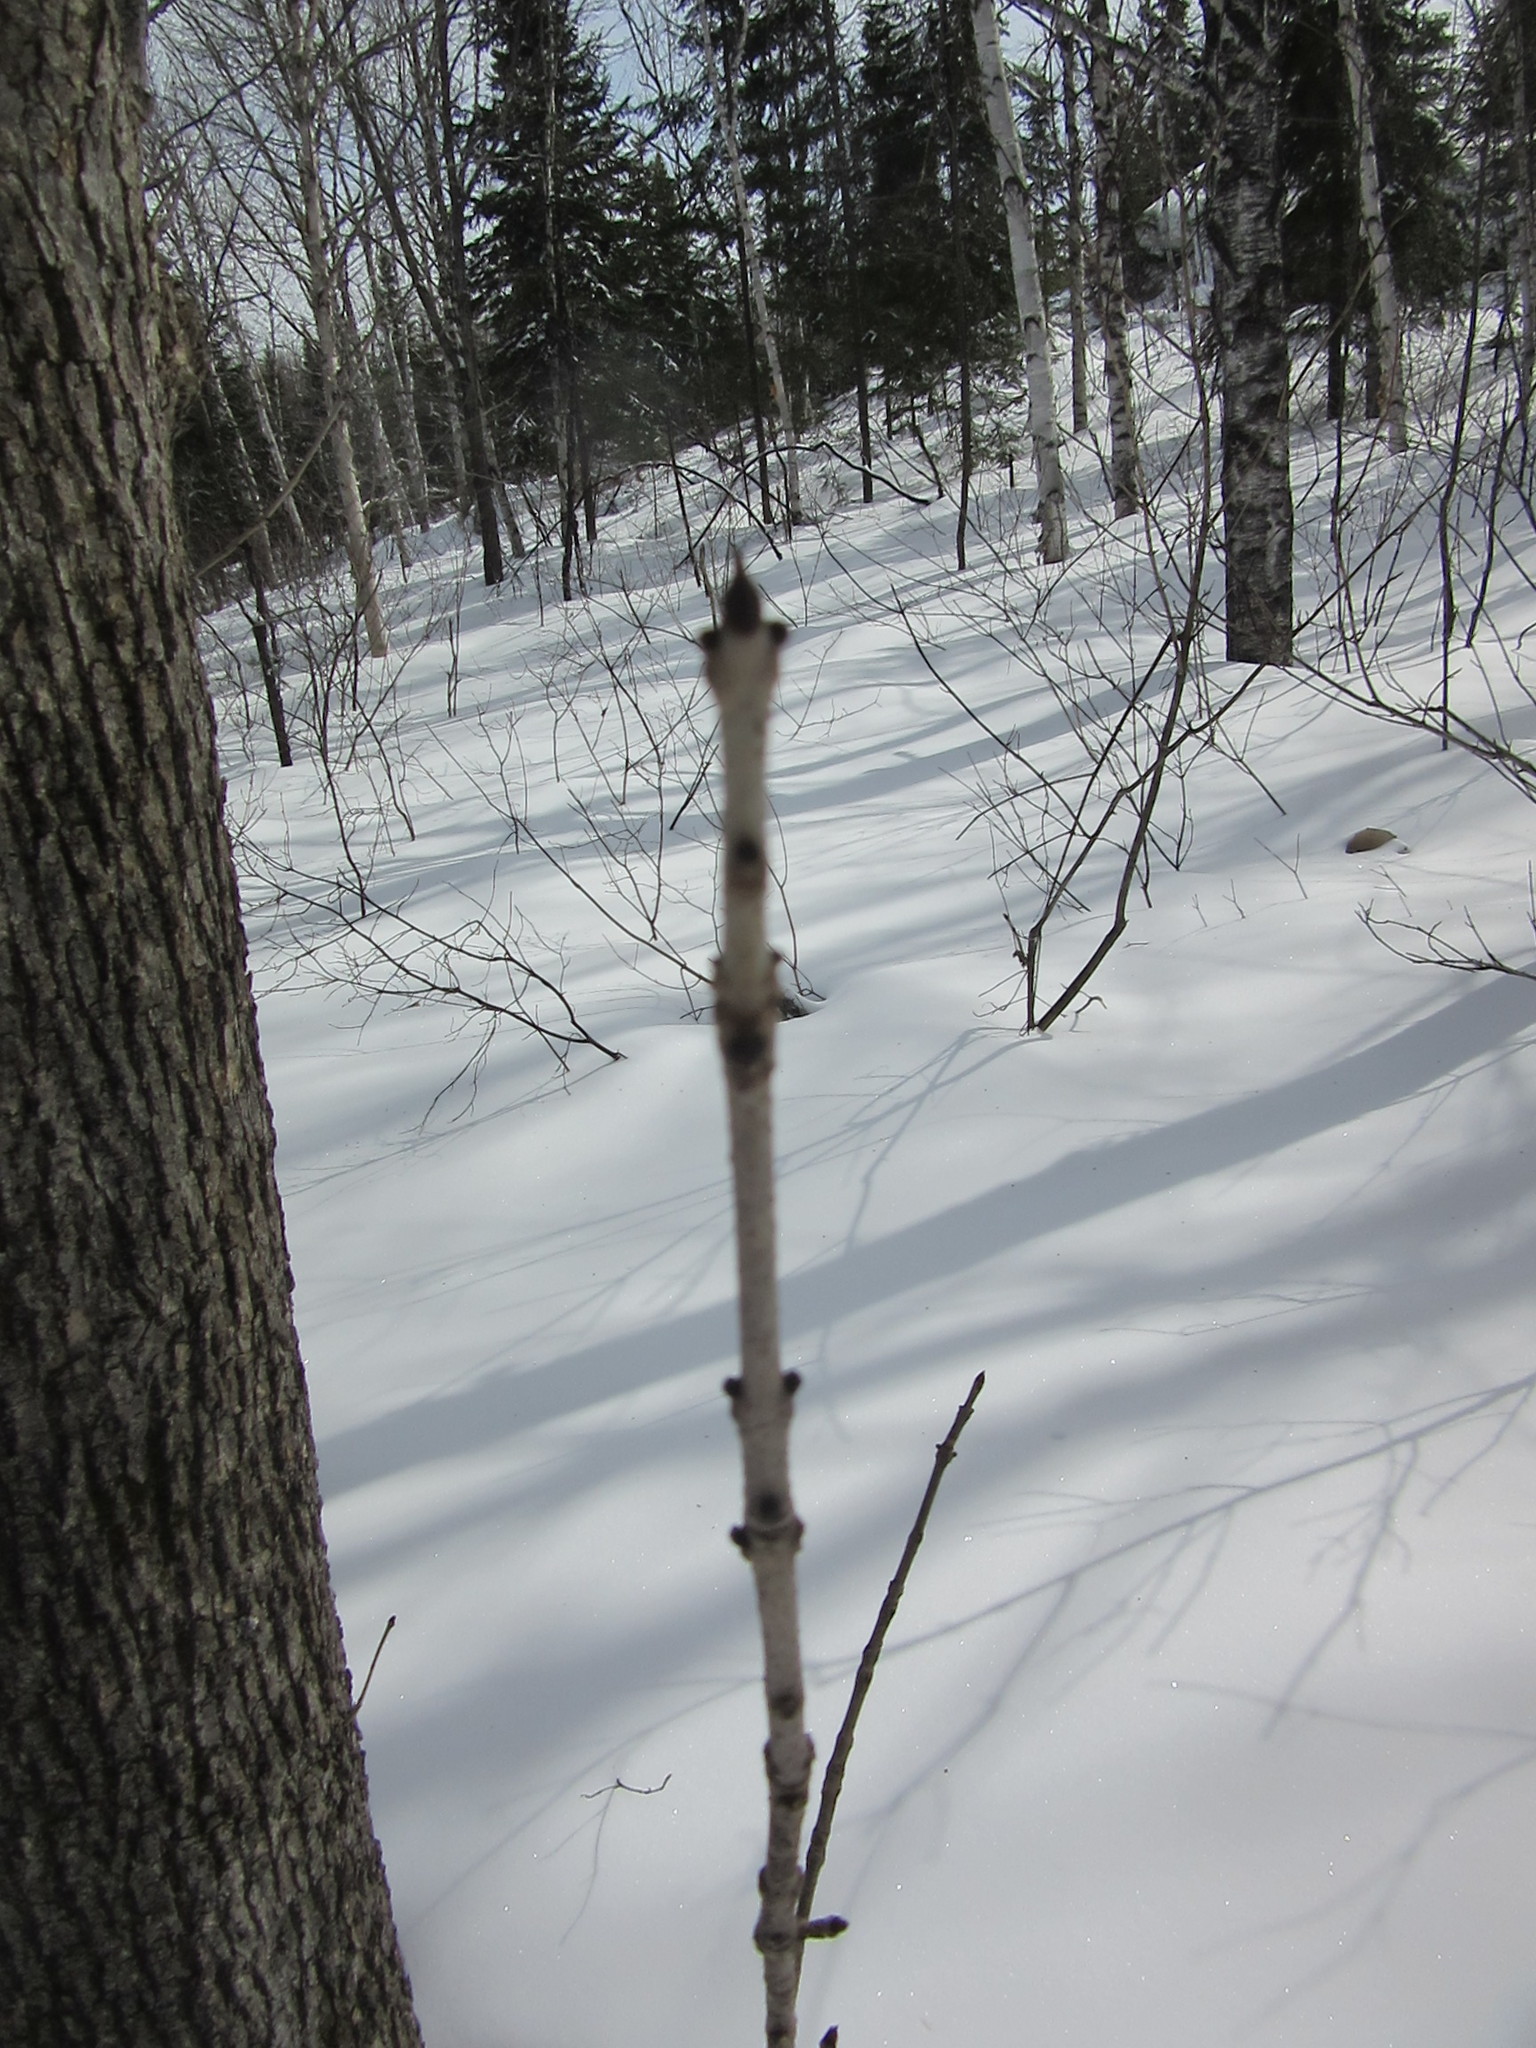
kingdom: Plantae
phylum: Tracheophyta
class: Magnoliopsida
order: Lamiales
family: Oleaceae
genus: Fraxinus
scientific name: Fraxinus nigra
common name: Black ash
